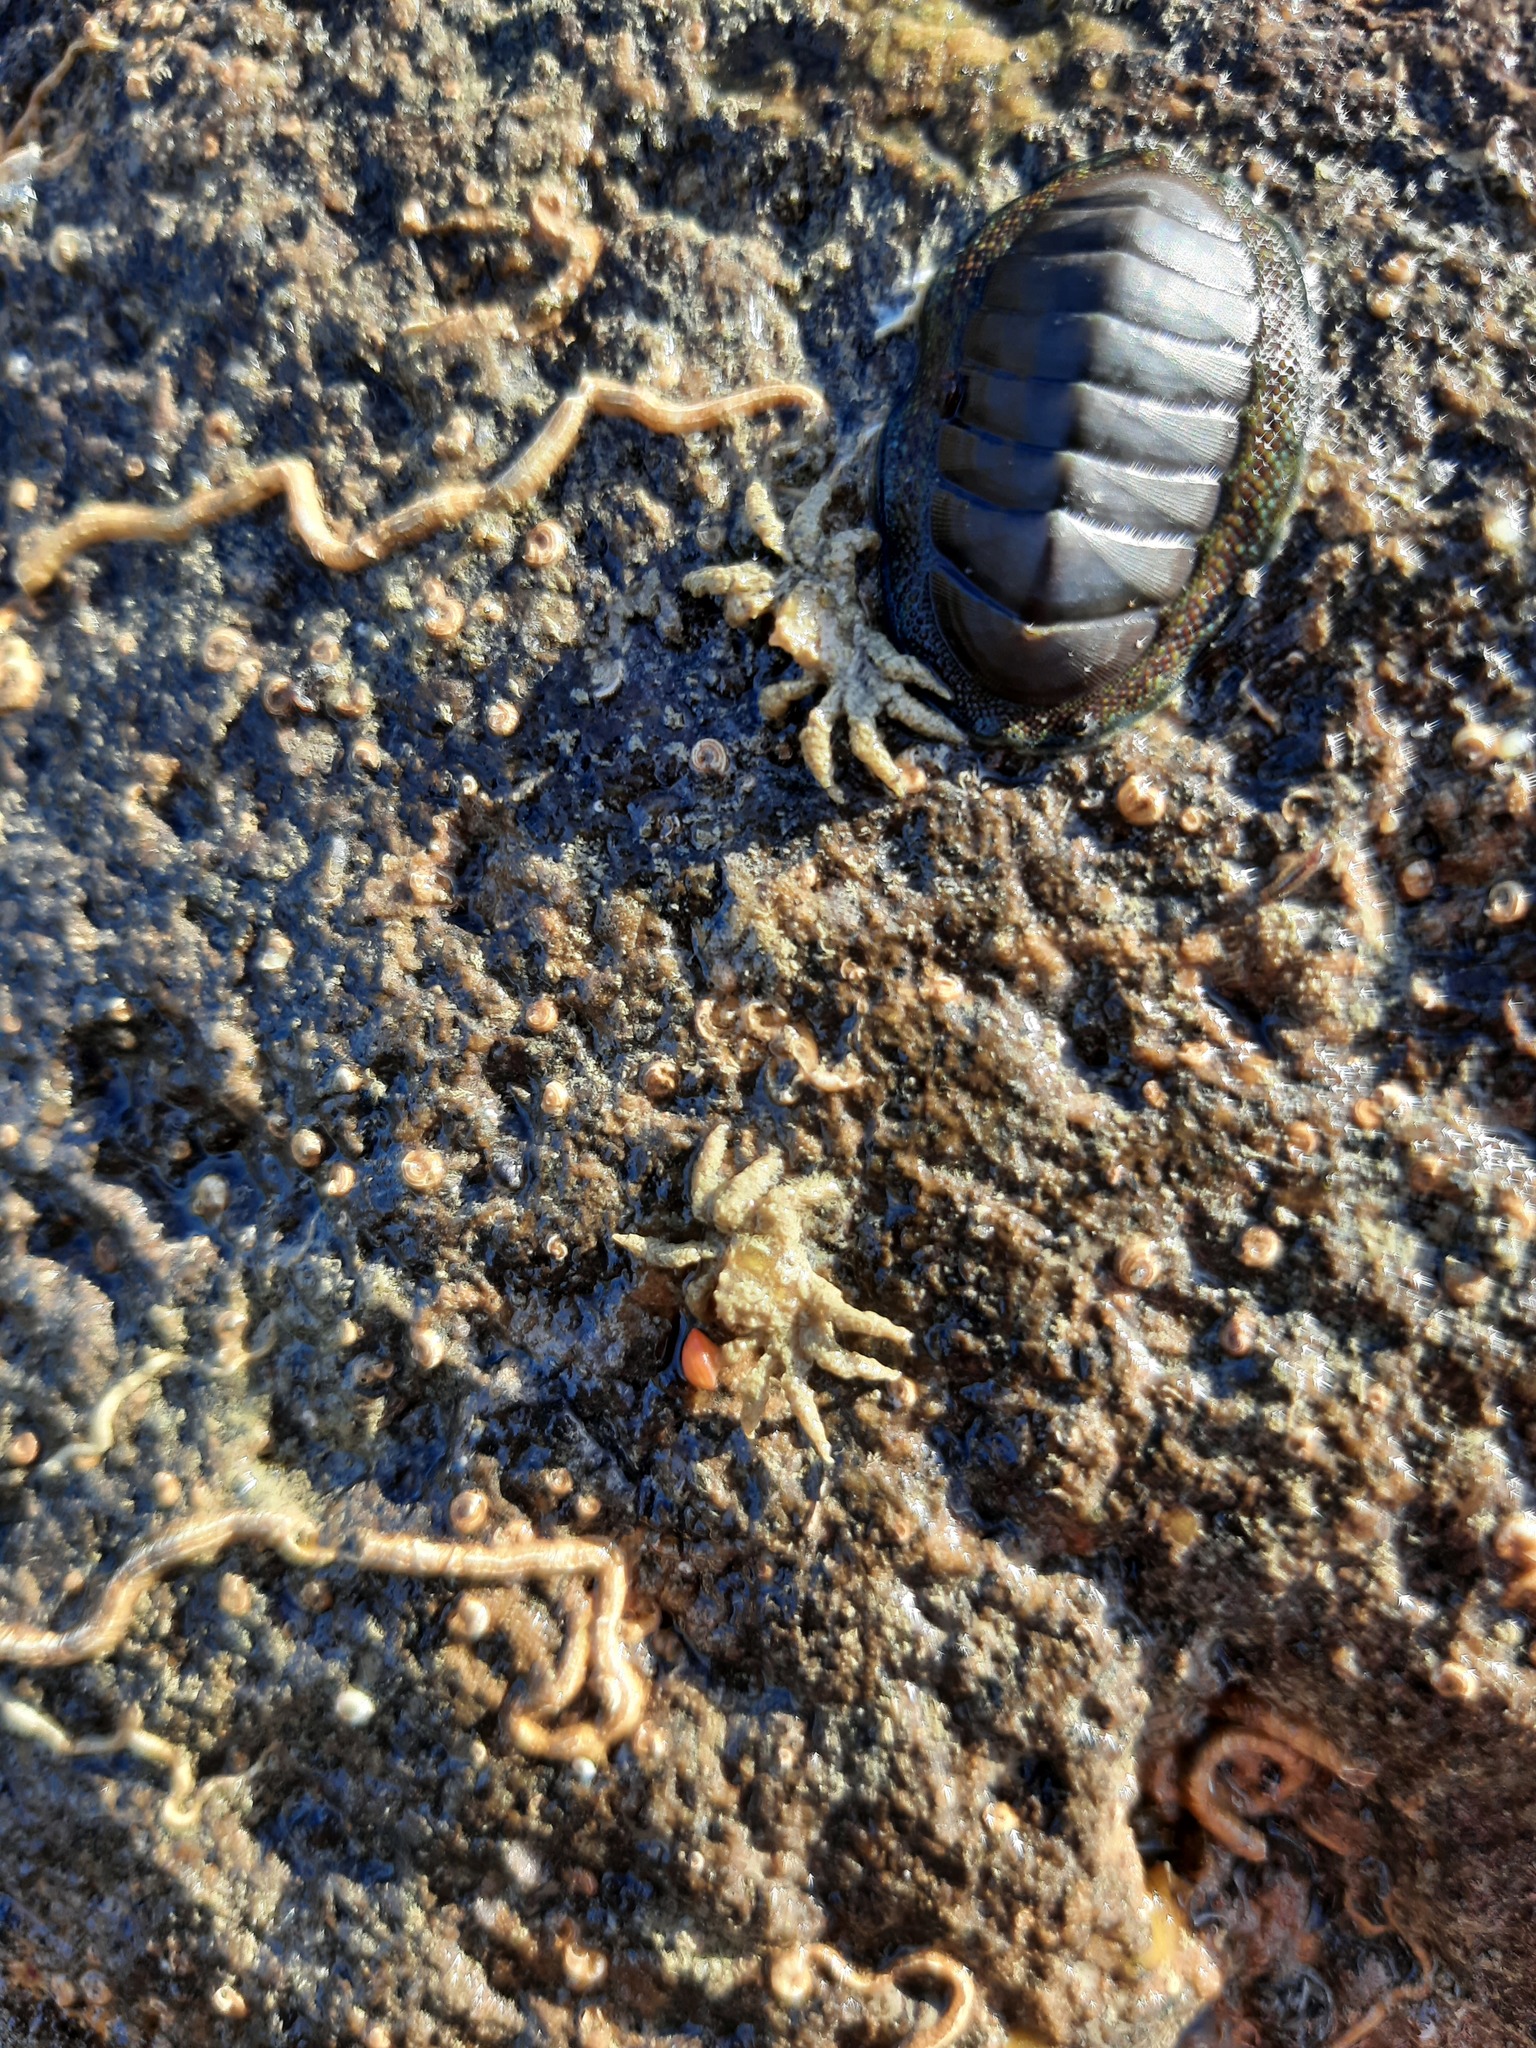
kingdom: Animalia
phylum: Arthropoda
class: Malacostraca
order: Decapoda
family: Hymenosomatidae
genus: Neohymenicus
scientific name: Neohymenicus pubescens
